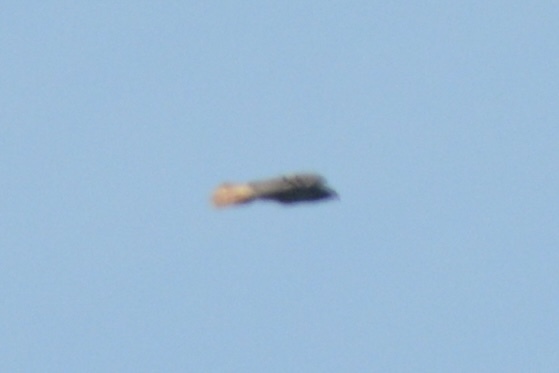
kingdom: Animalia
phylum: Chordata
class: Aves
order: Accipitriformes
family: Accipitridae
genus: Buteo
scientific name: Buteo jamaicensis
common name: Red-tailed hawk
